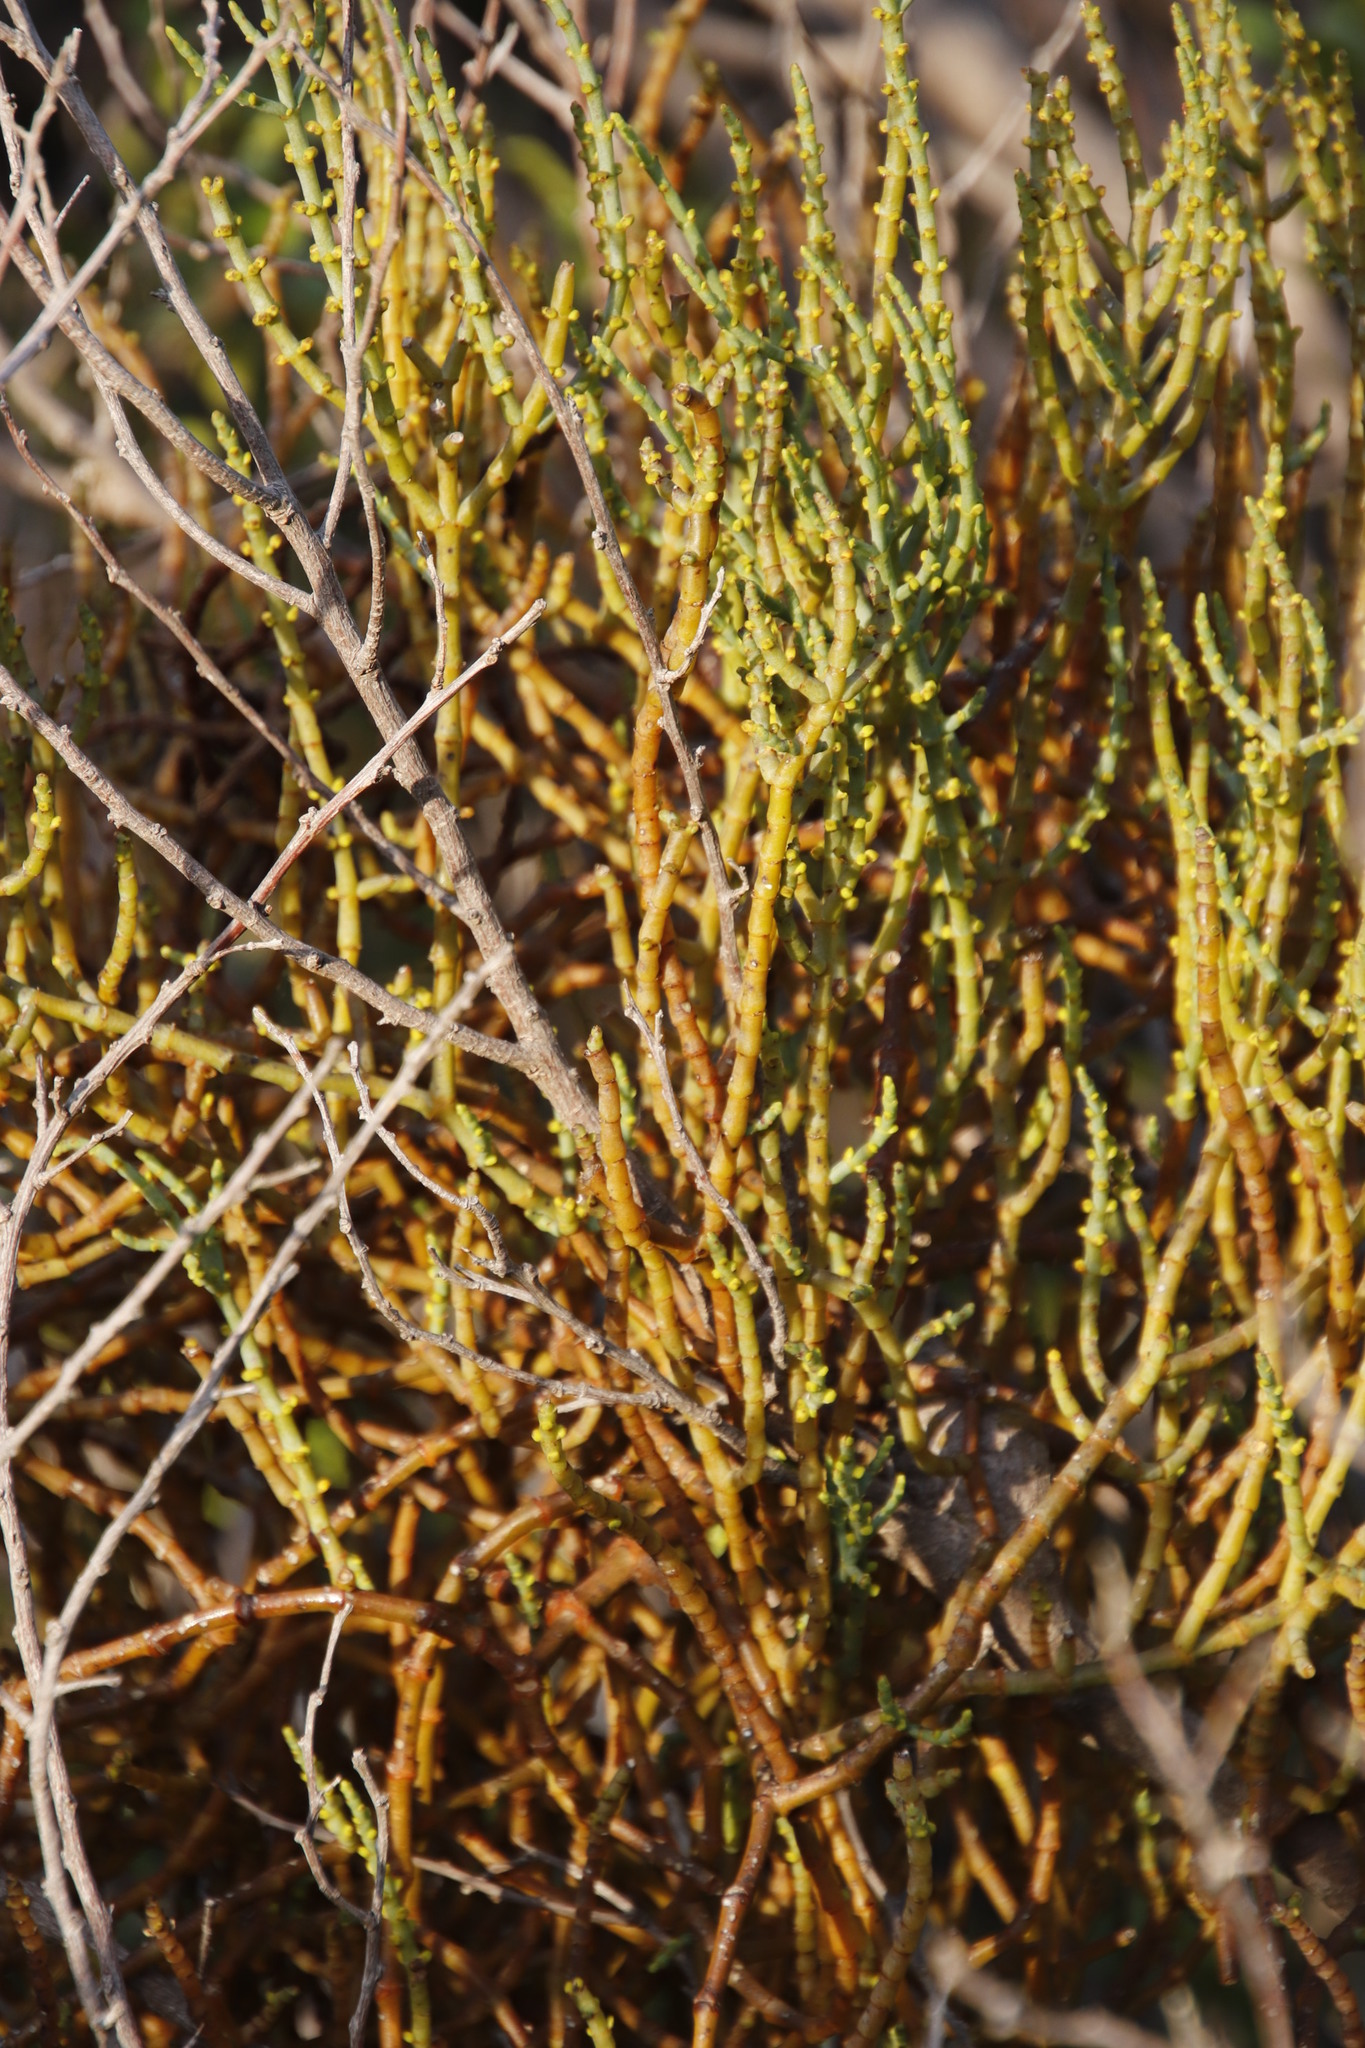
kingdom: Plantae
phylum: Tracheophyta
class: Magnoliopsida
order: Santalales
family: Viscaceae
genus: Viscum
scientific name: Viscum capense
